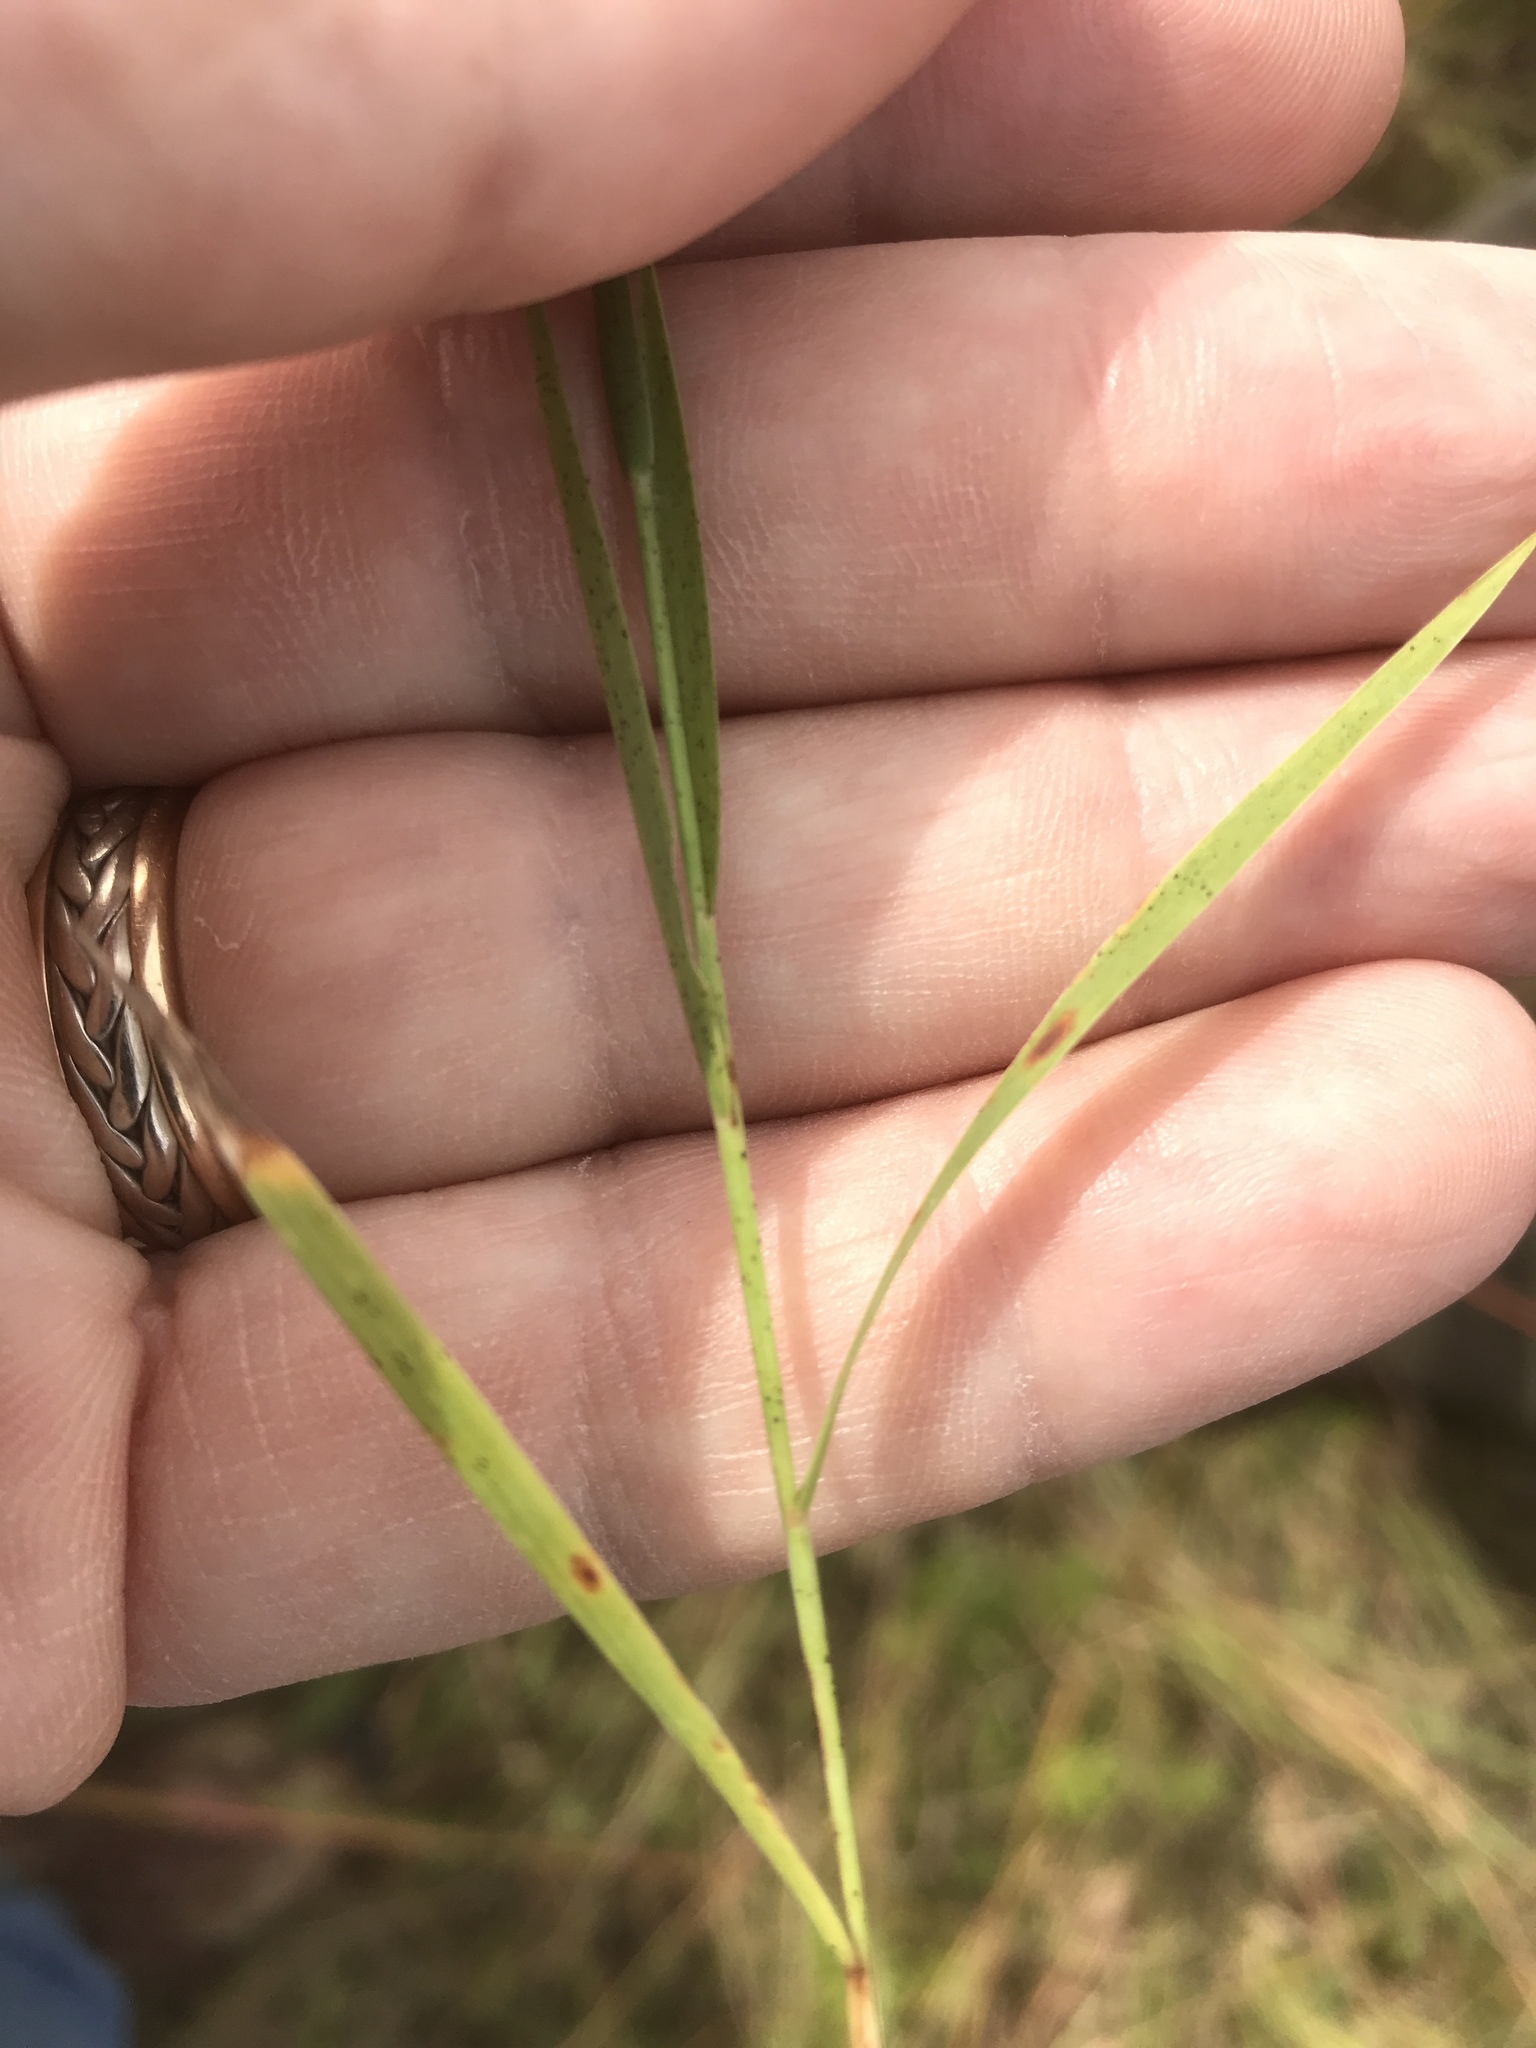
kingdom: Plantae
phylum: Tracheophyta
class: Liliopsida
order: Poales
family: Poaceae
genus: Digitaria
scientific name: Digitaria cognata
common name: Fall witchgrass
